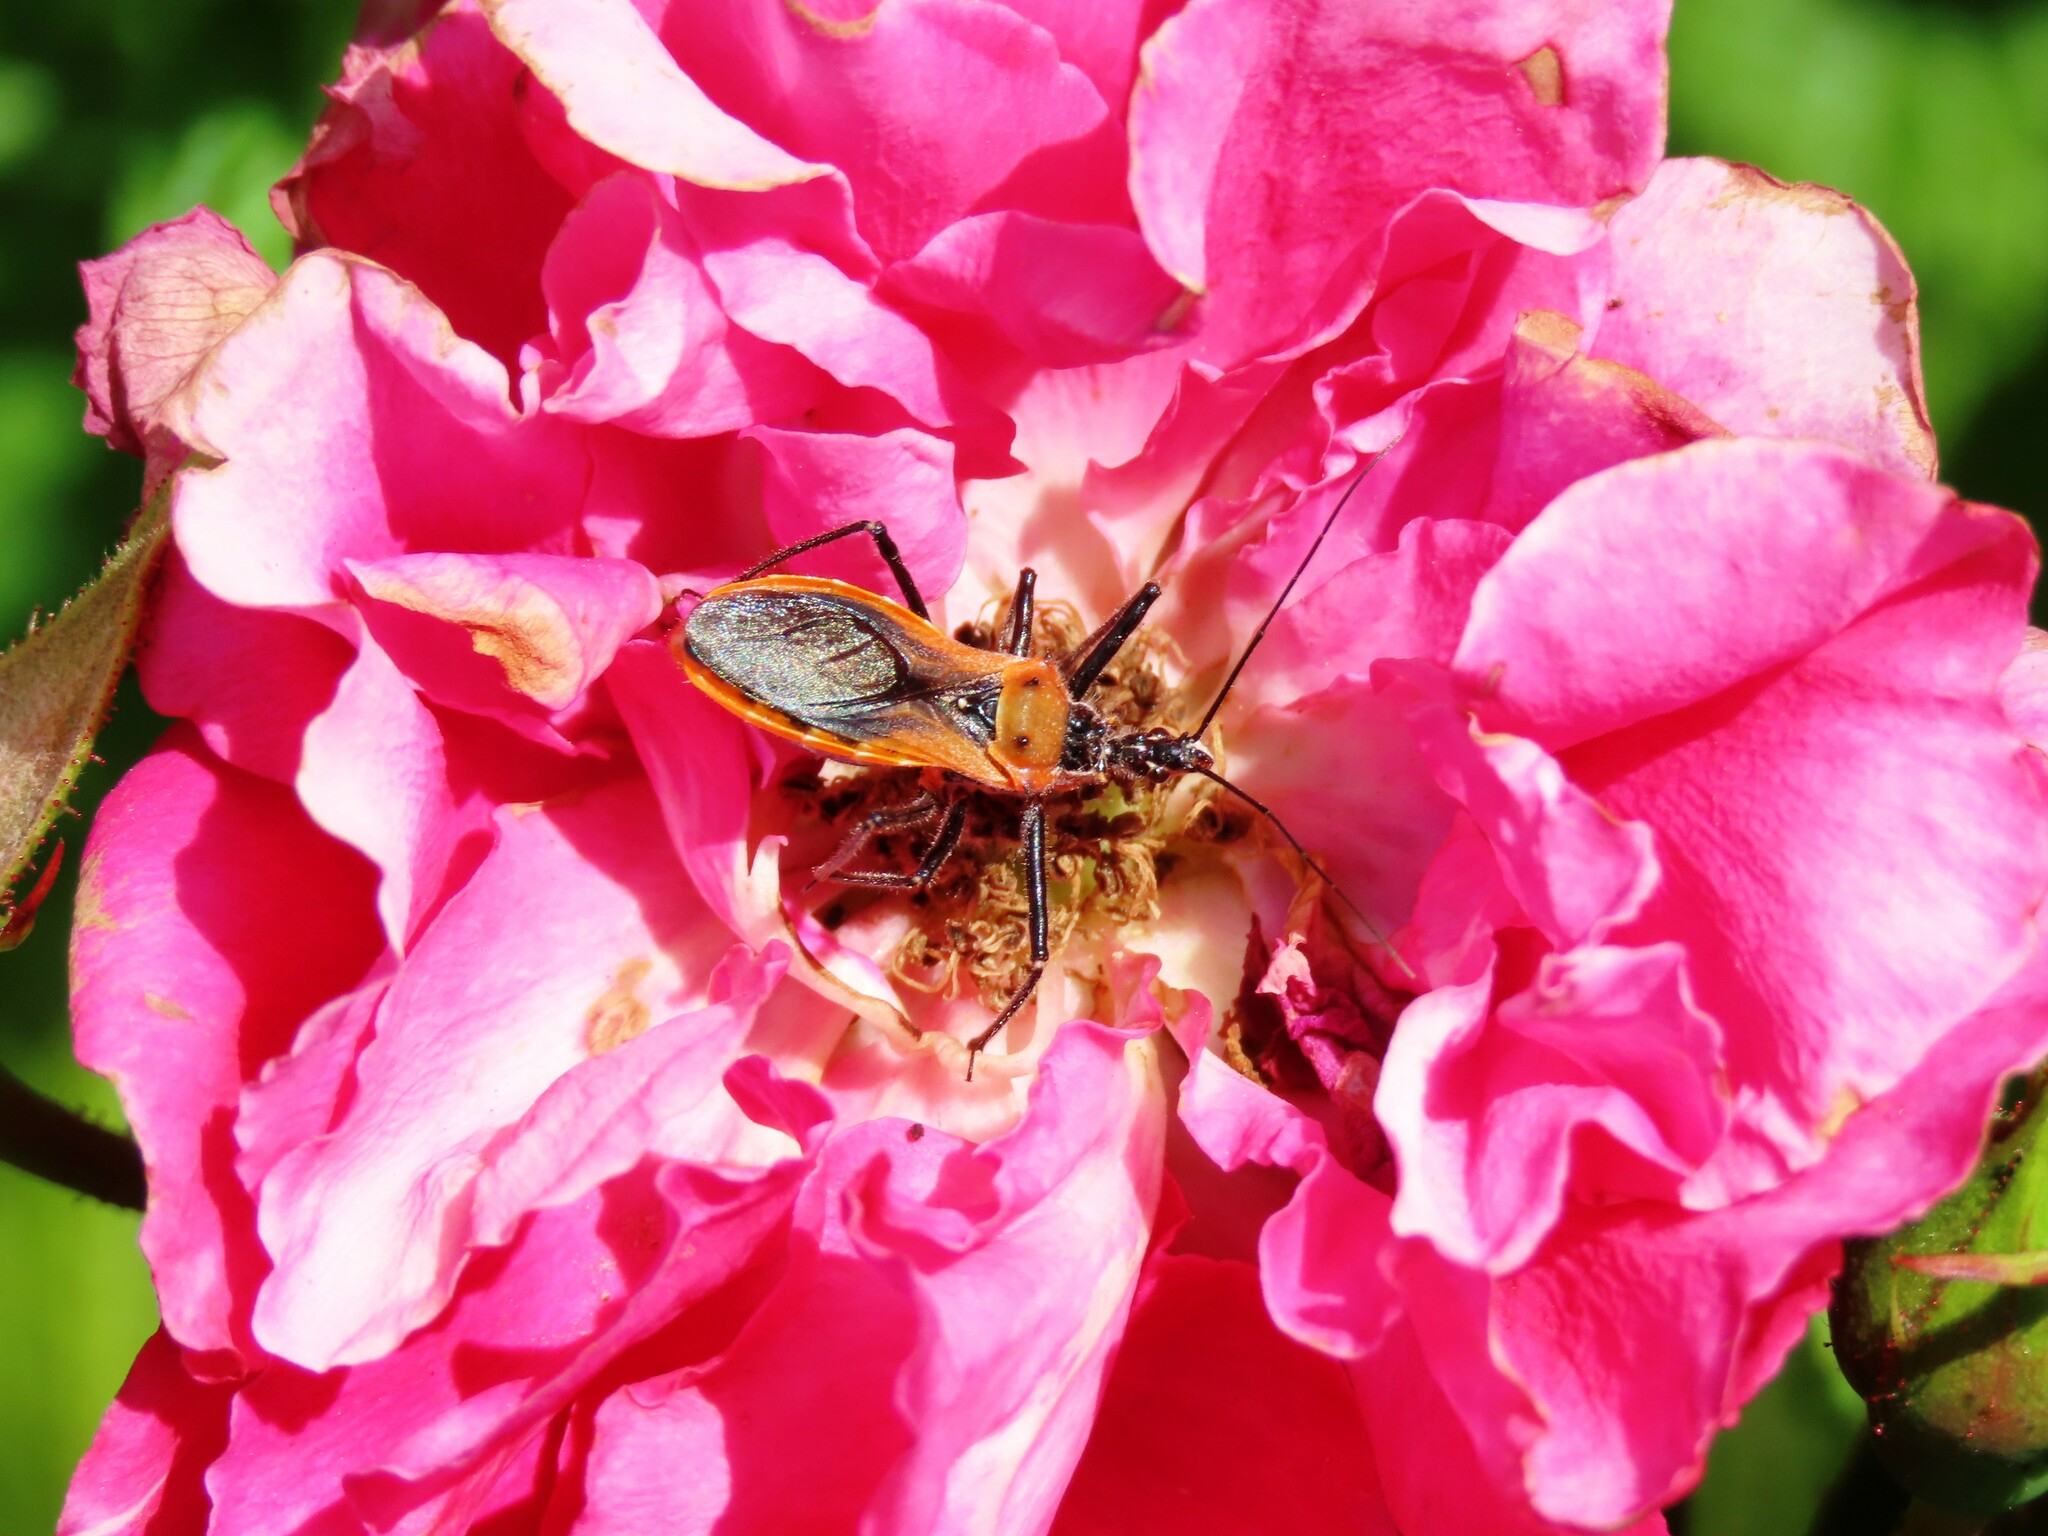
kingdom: Animalia
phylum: Arthropoda
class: Insecta
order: Hemiptera
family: Reduviidae
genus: Gminatus
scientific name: Gminatus australis
